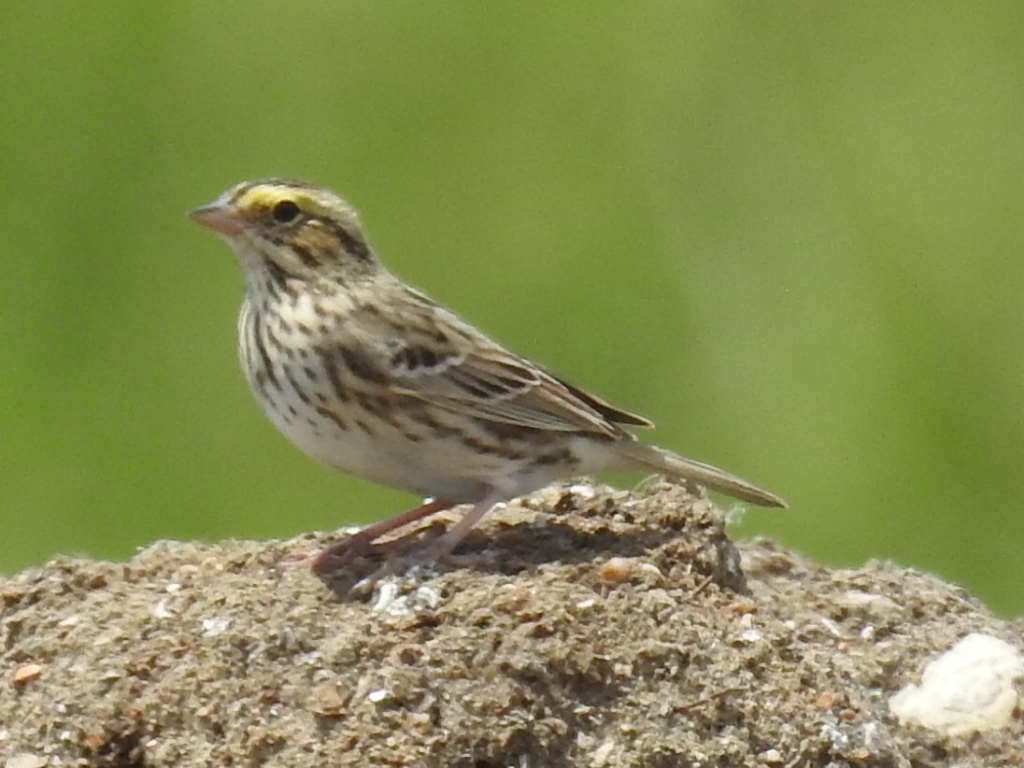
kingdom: Animalia
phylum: Chordata
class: Aves
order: Passeriformes
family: Passerellidae
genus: Passerculus
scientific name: Passerculus sandwichensis
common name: Savannah sparrow
